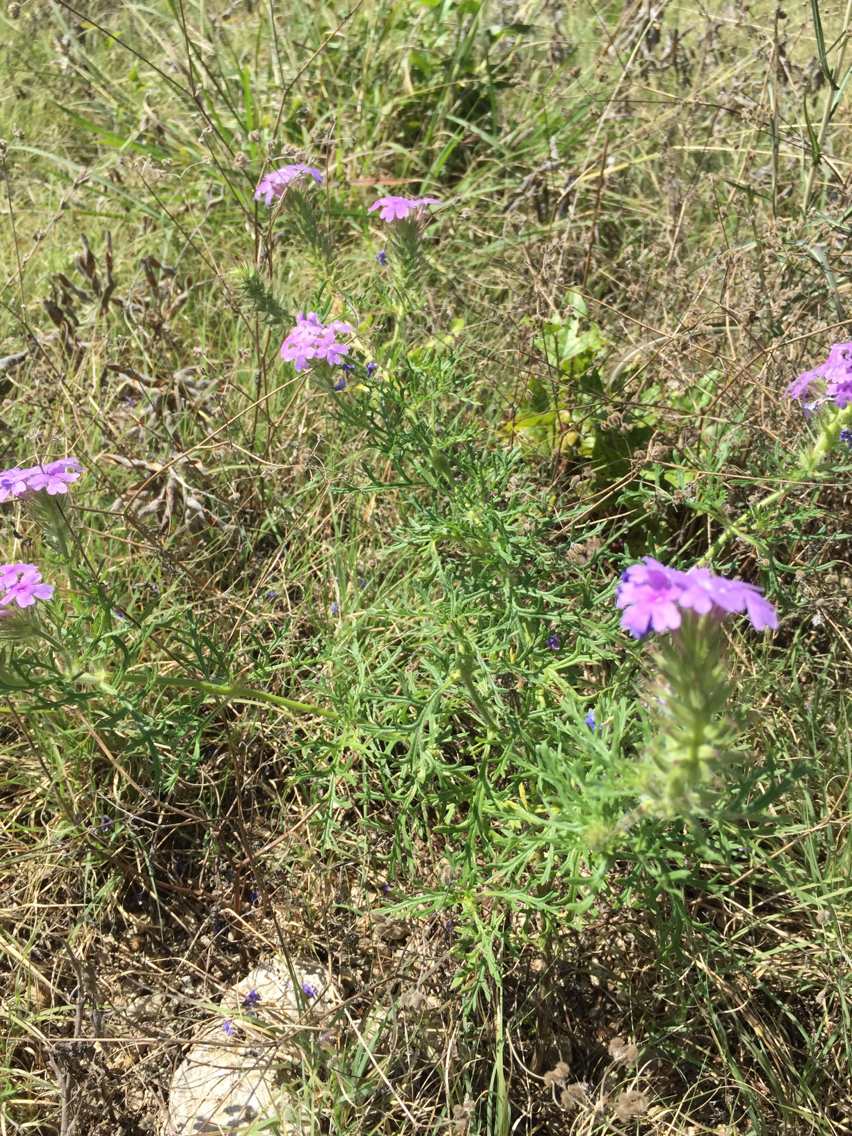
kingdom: Plantae
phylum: Tracheophyta
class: Magnoliopsida
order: Lamiales
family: Verbenaceae
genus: Verbena
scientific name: Verbena bipinnatifida
